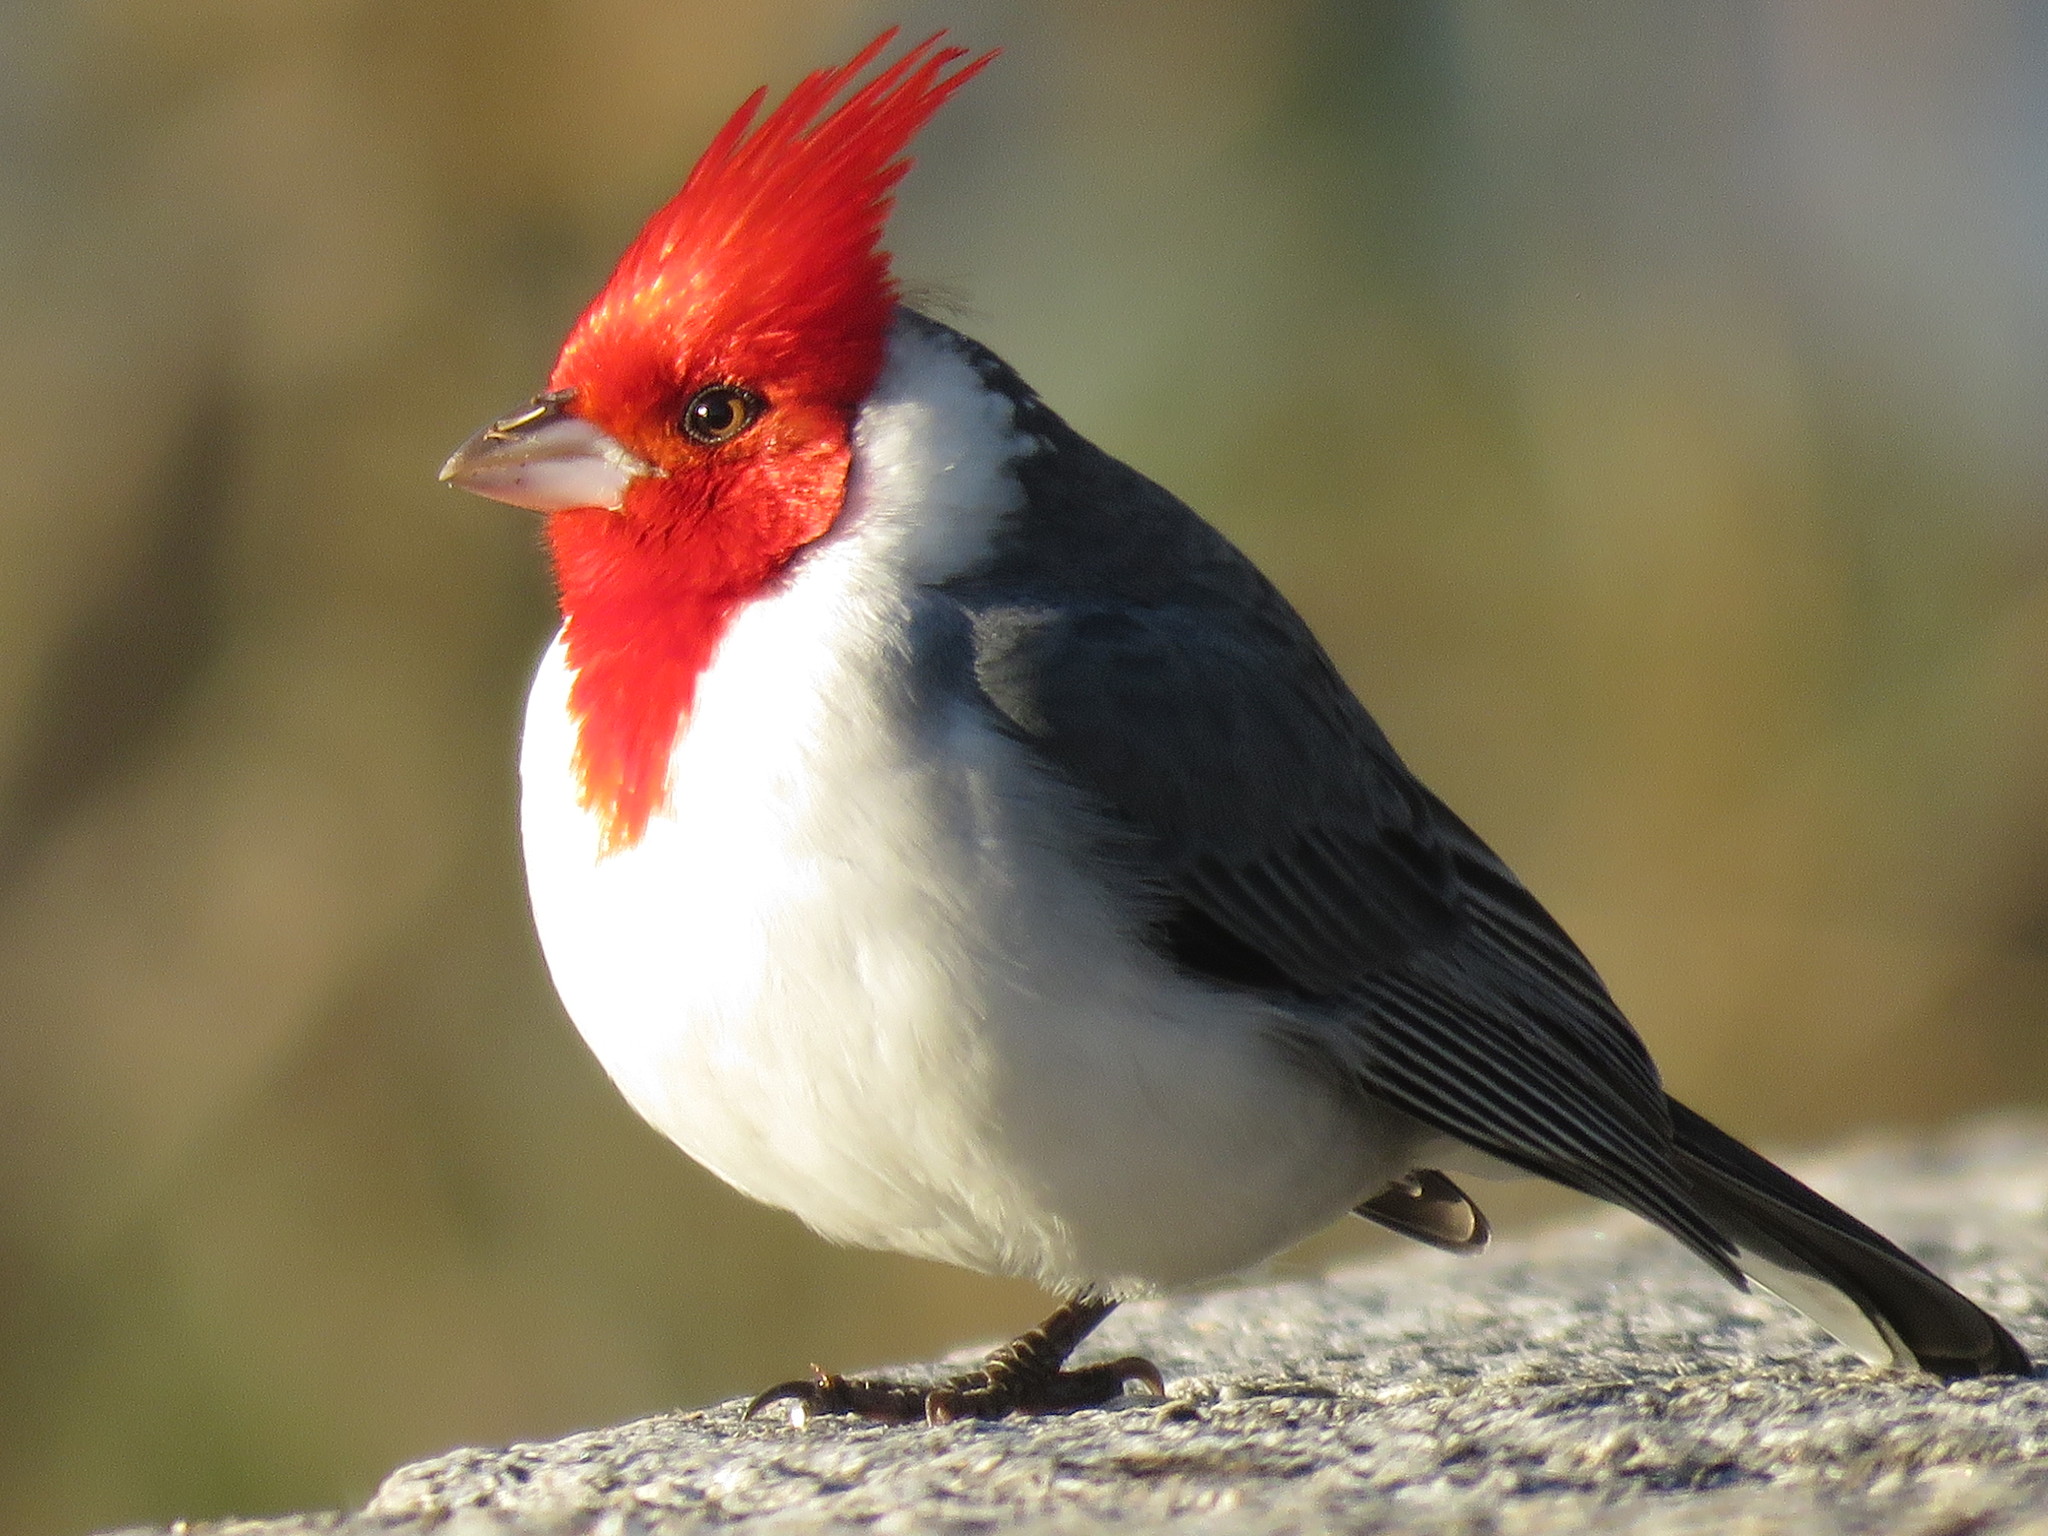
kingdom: Animalia
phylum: Chordata
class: Aves
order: Passeriformes
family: Thraupidae
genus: Paroaria
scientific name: Paroaria coronata
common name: Red-crested cardinal
